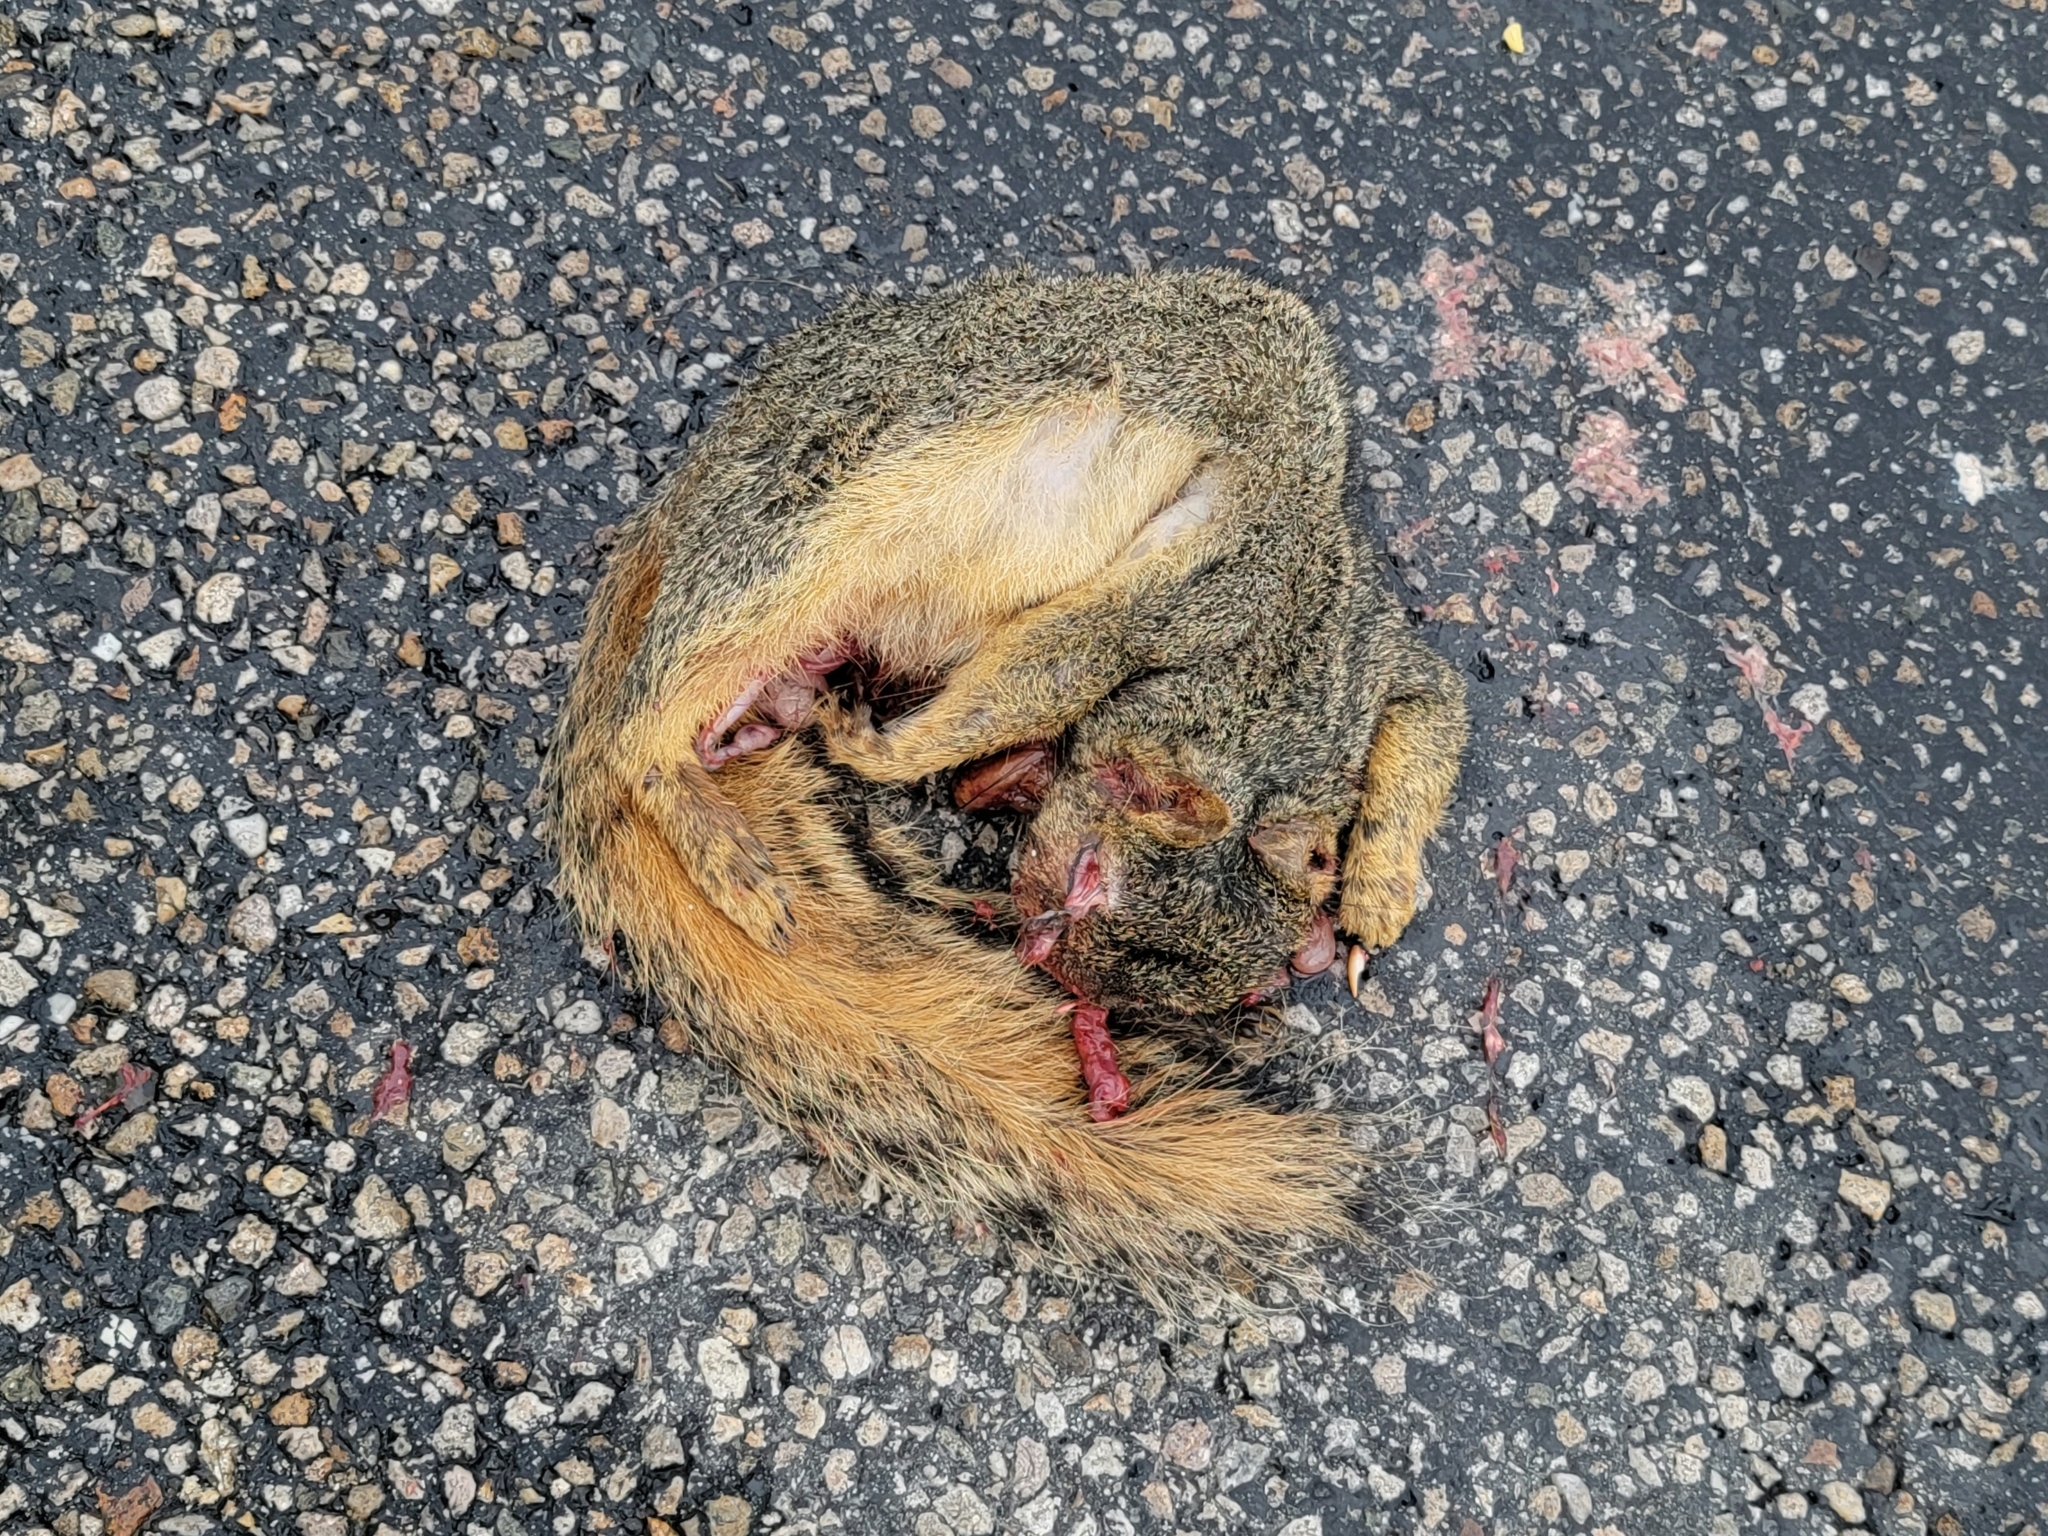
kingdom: Animalia
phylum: Chordata
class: Mammalia
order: Rodentia
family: Sciuridae
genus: Sciurus
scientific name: Sciurus niger
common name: Fox squirrel
